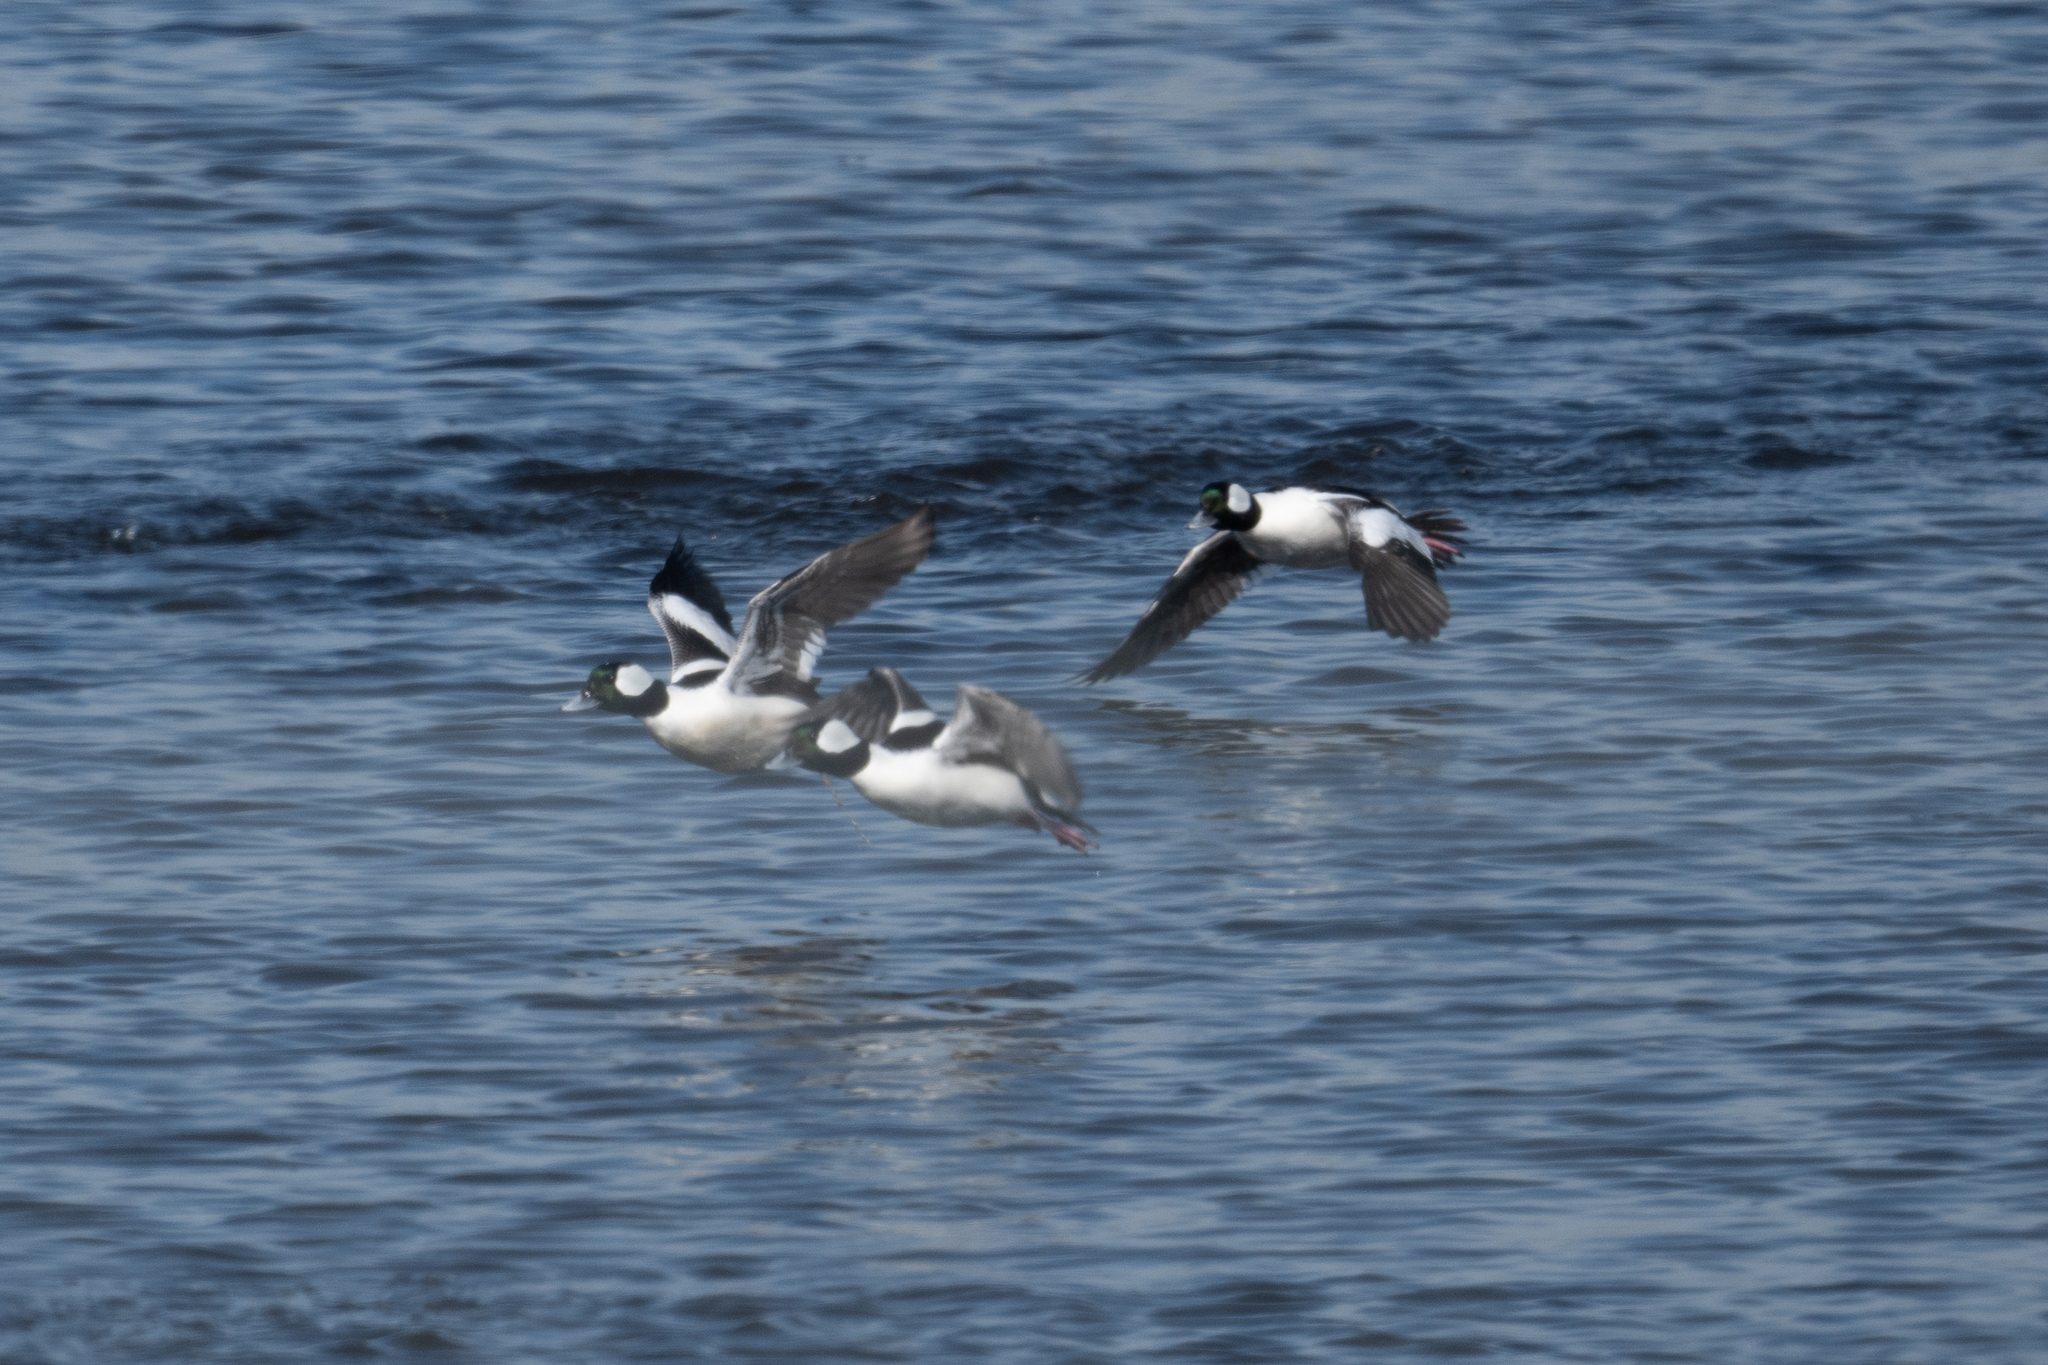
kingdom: Animalia
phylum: Chordata
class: Aves
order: Anseriformes
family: Anatidae
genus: Bucephala
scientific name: Bucephala albeola
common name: Bufflehead
